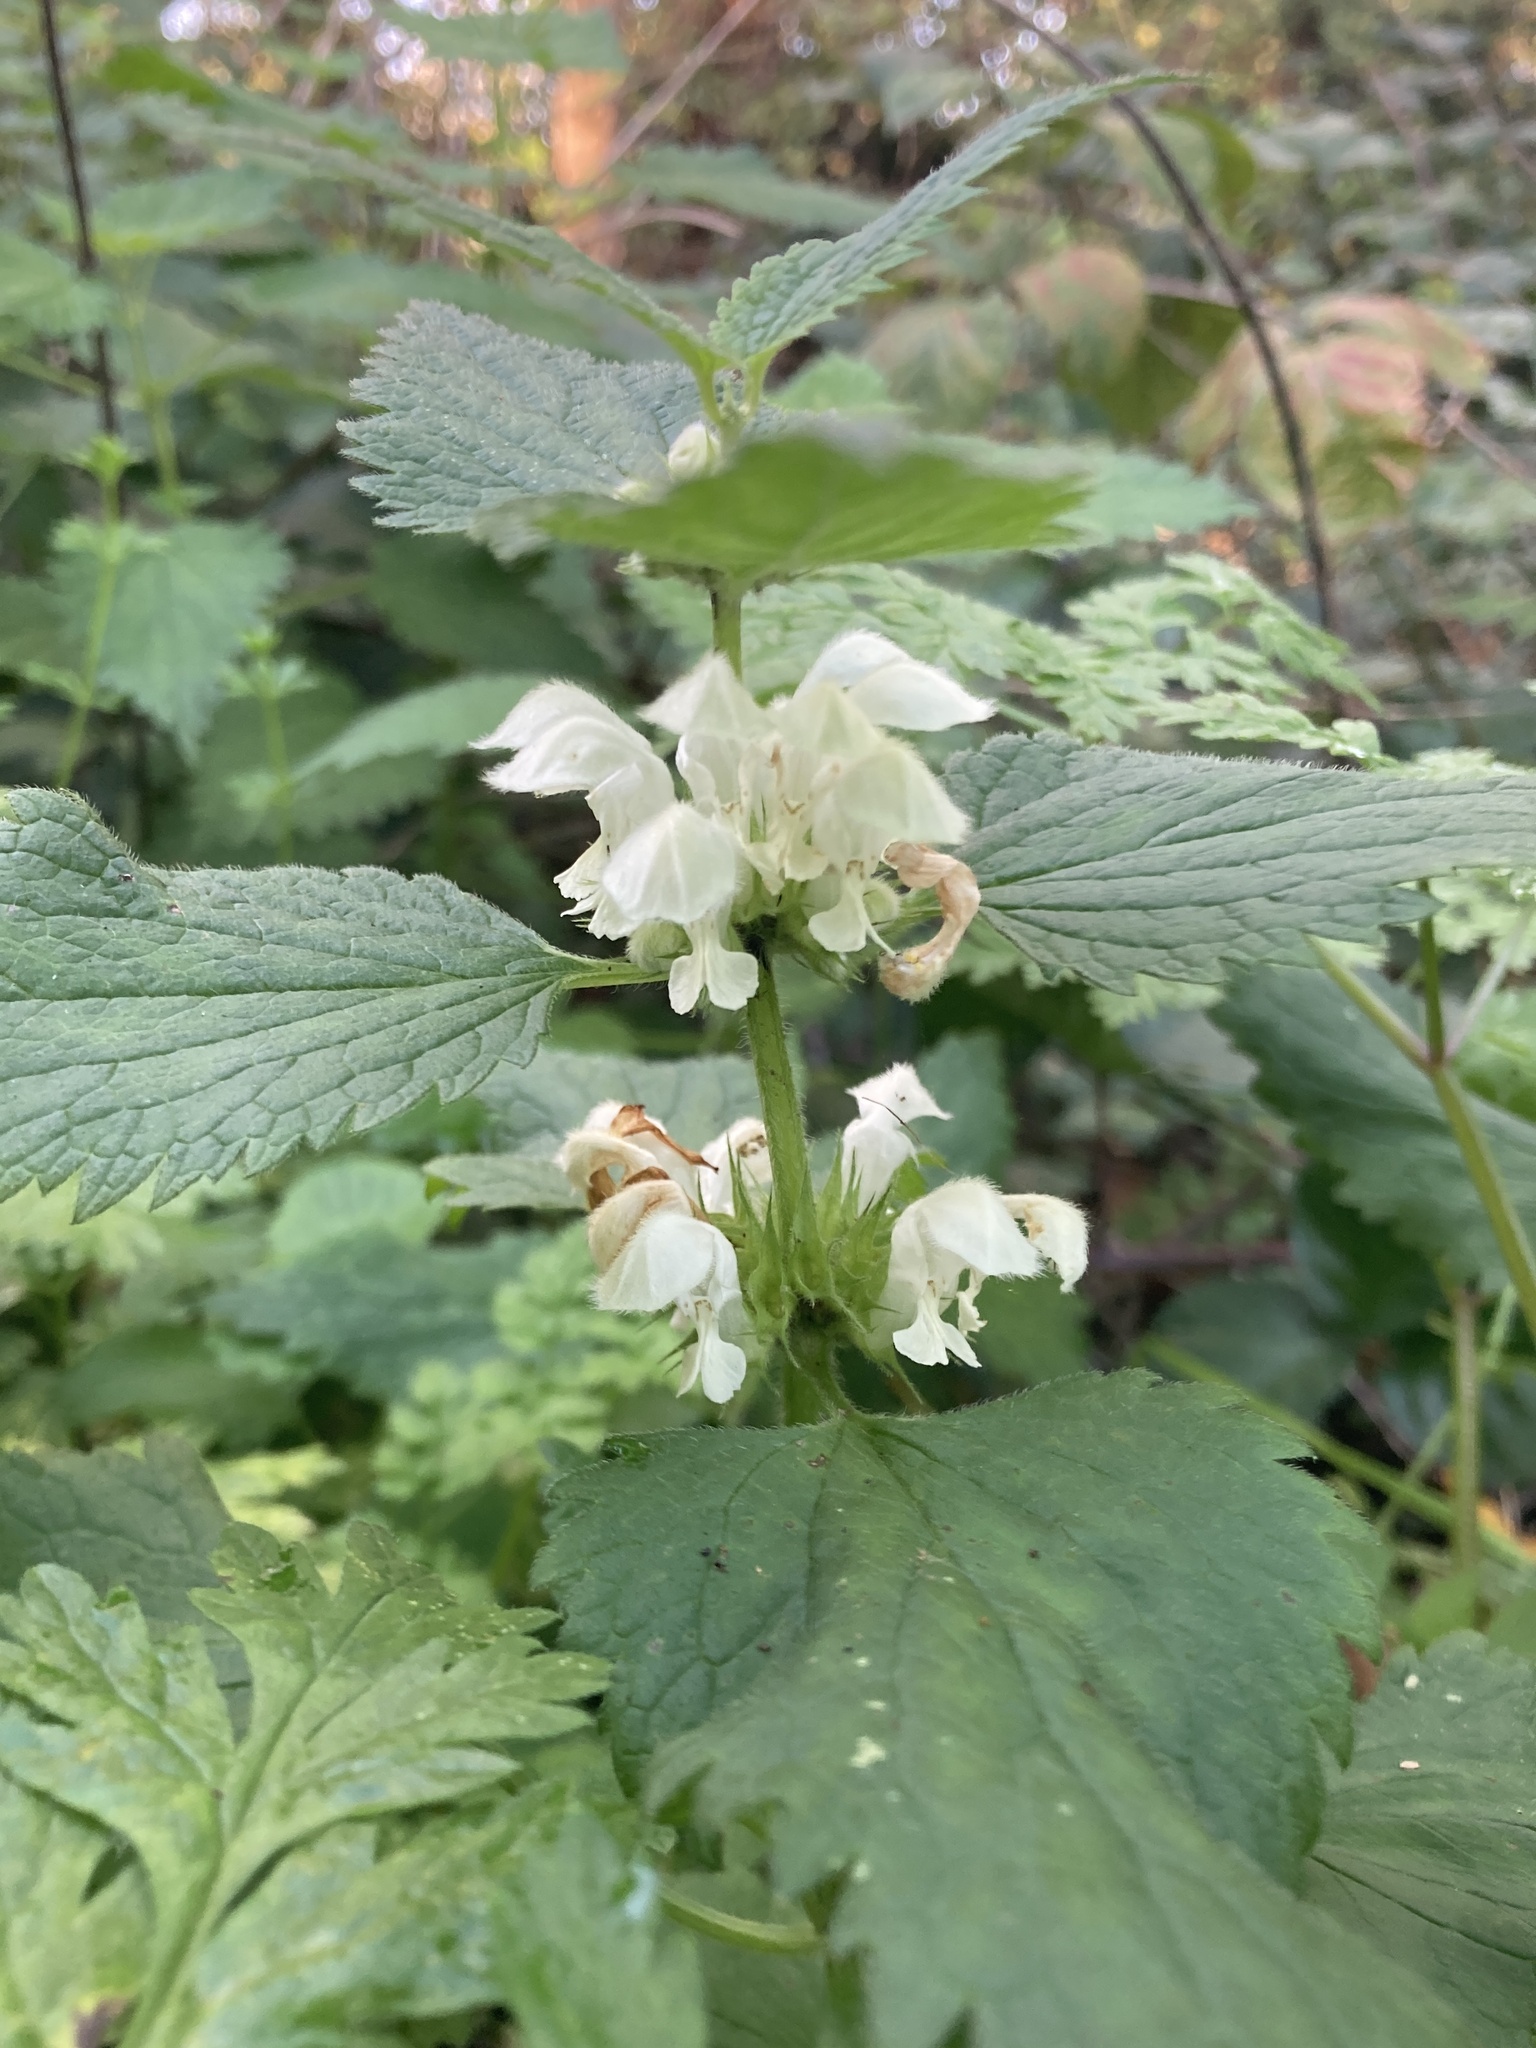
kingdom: Plantae
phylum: Tracheophyta
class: Magnoliopsida
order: Lamiales
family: Lamiaceae
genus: Lamium
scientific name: Lamium album
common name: White dead-nettle
